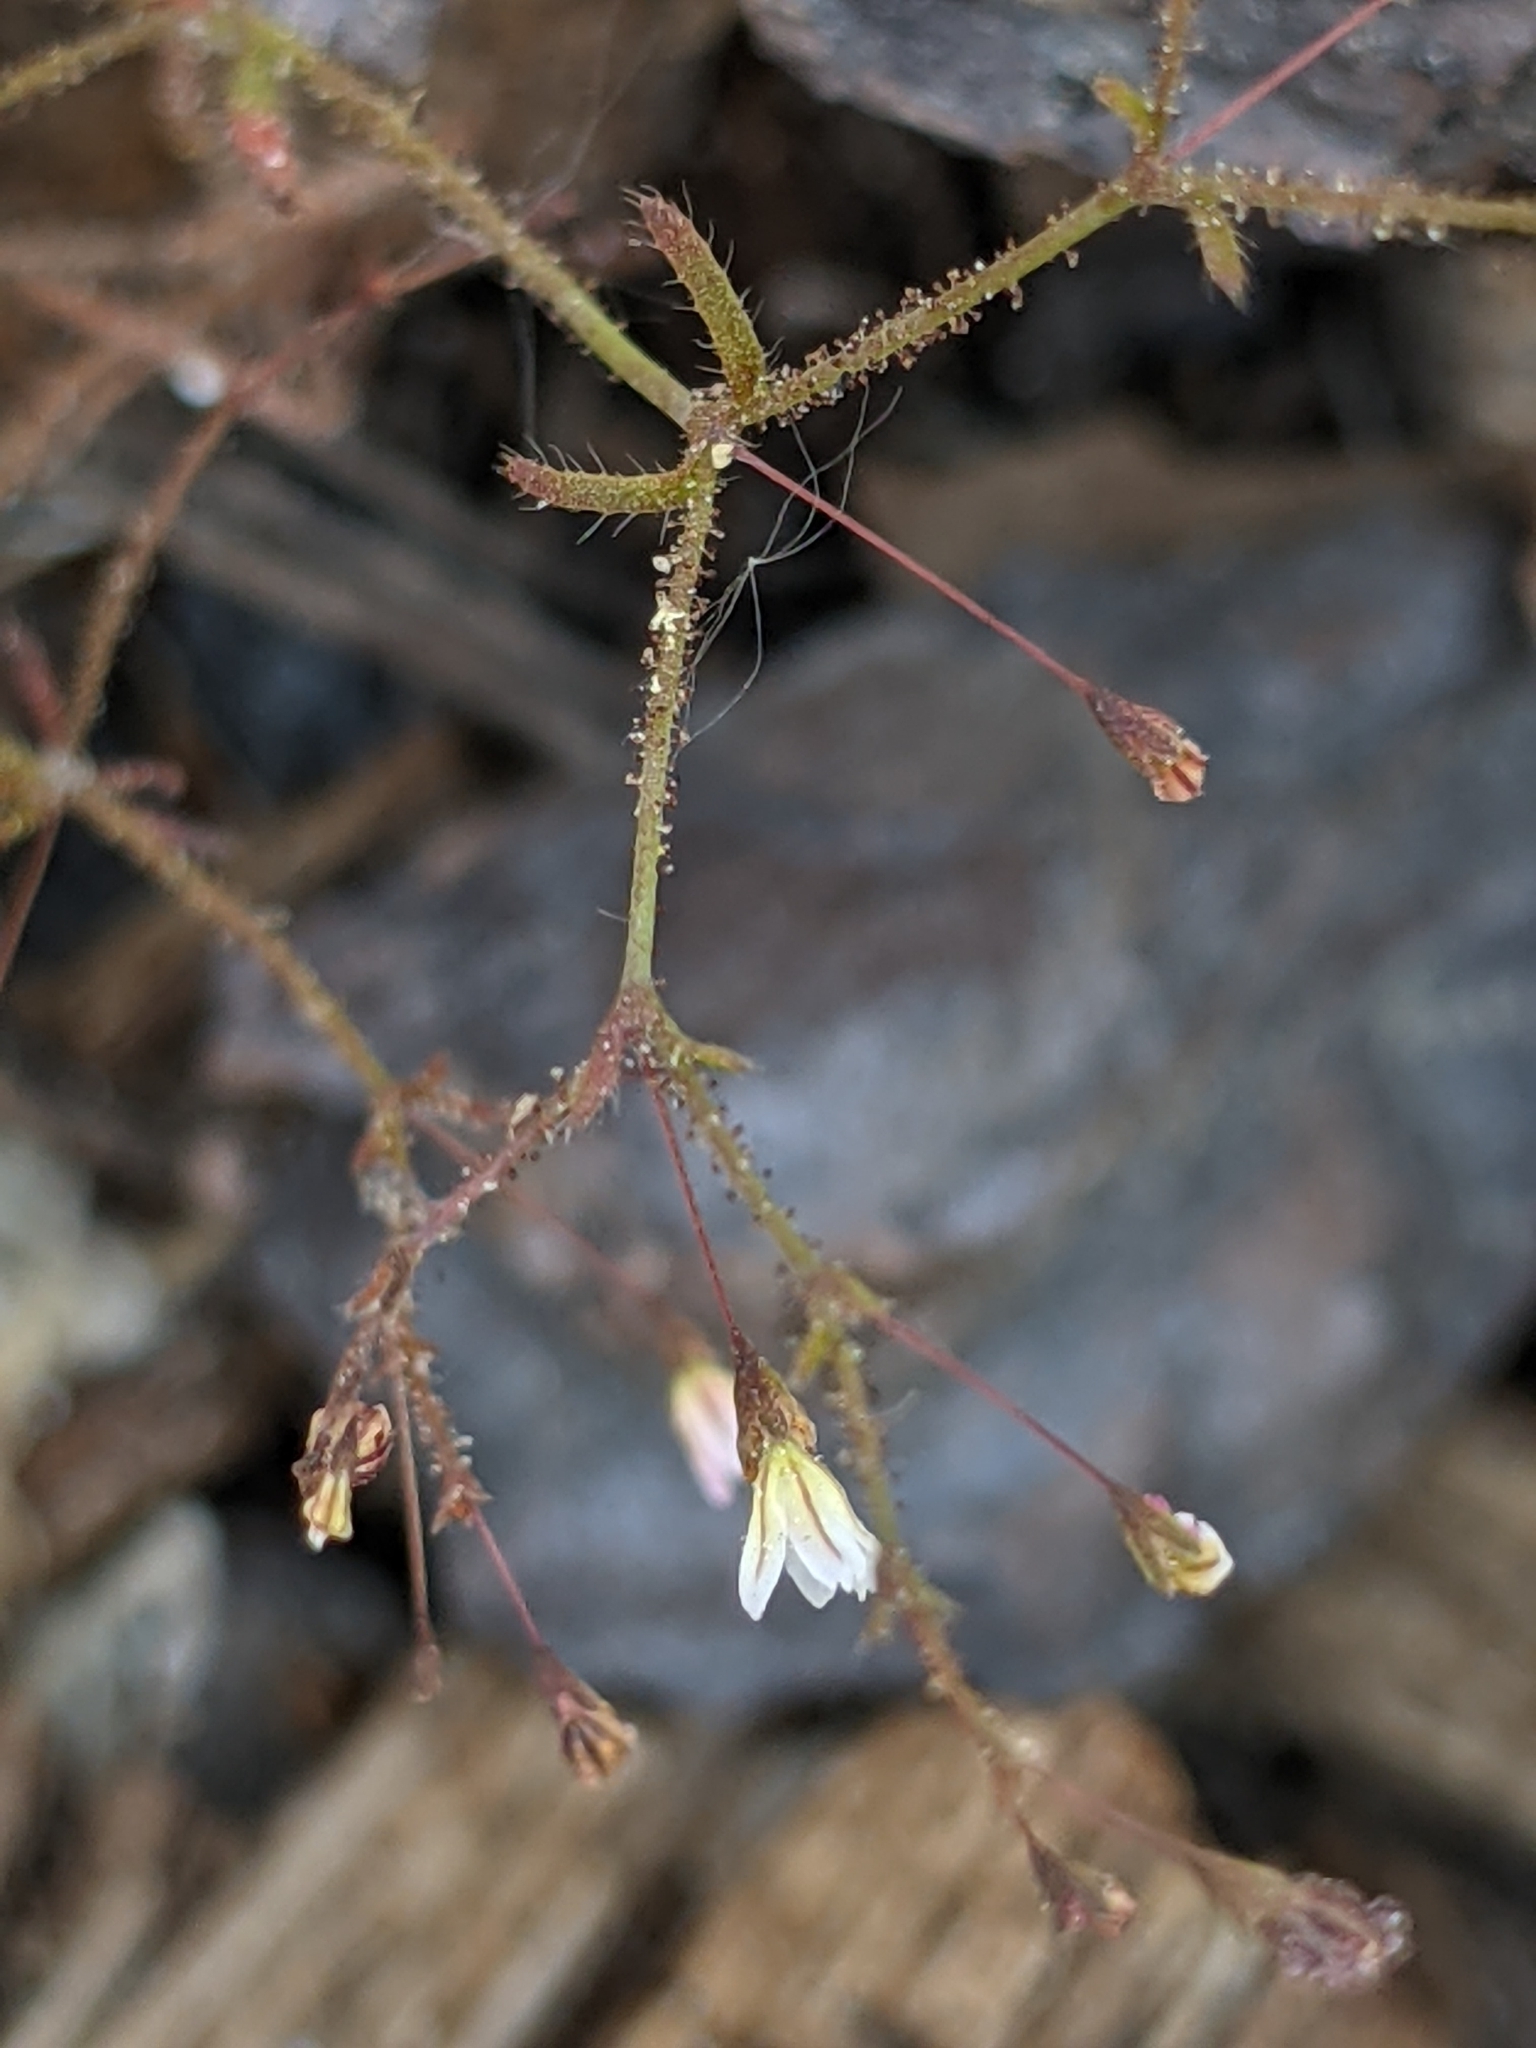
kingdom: Plantae
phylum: Tracheophyta
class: Magnoliopsida
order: Caryophyllales
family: Polygonaceae
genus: Eriogonum
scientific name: Eriogonum spergulinum
